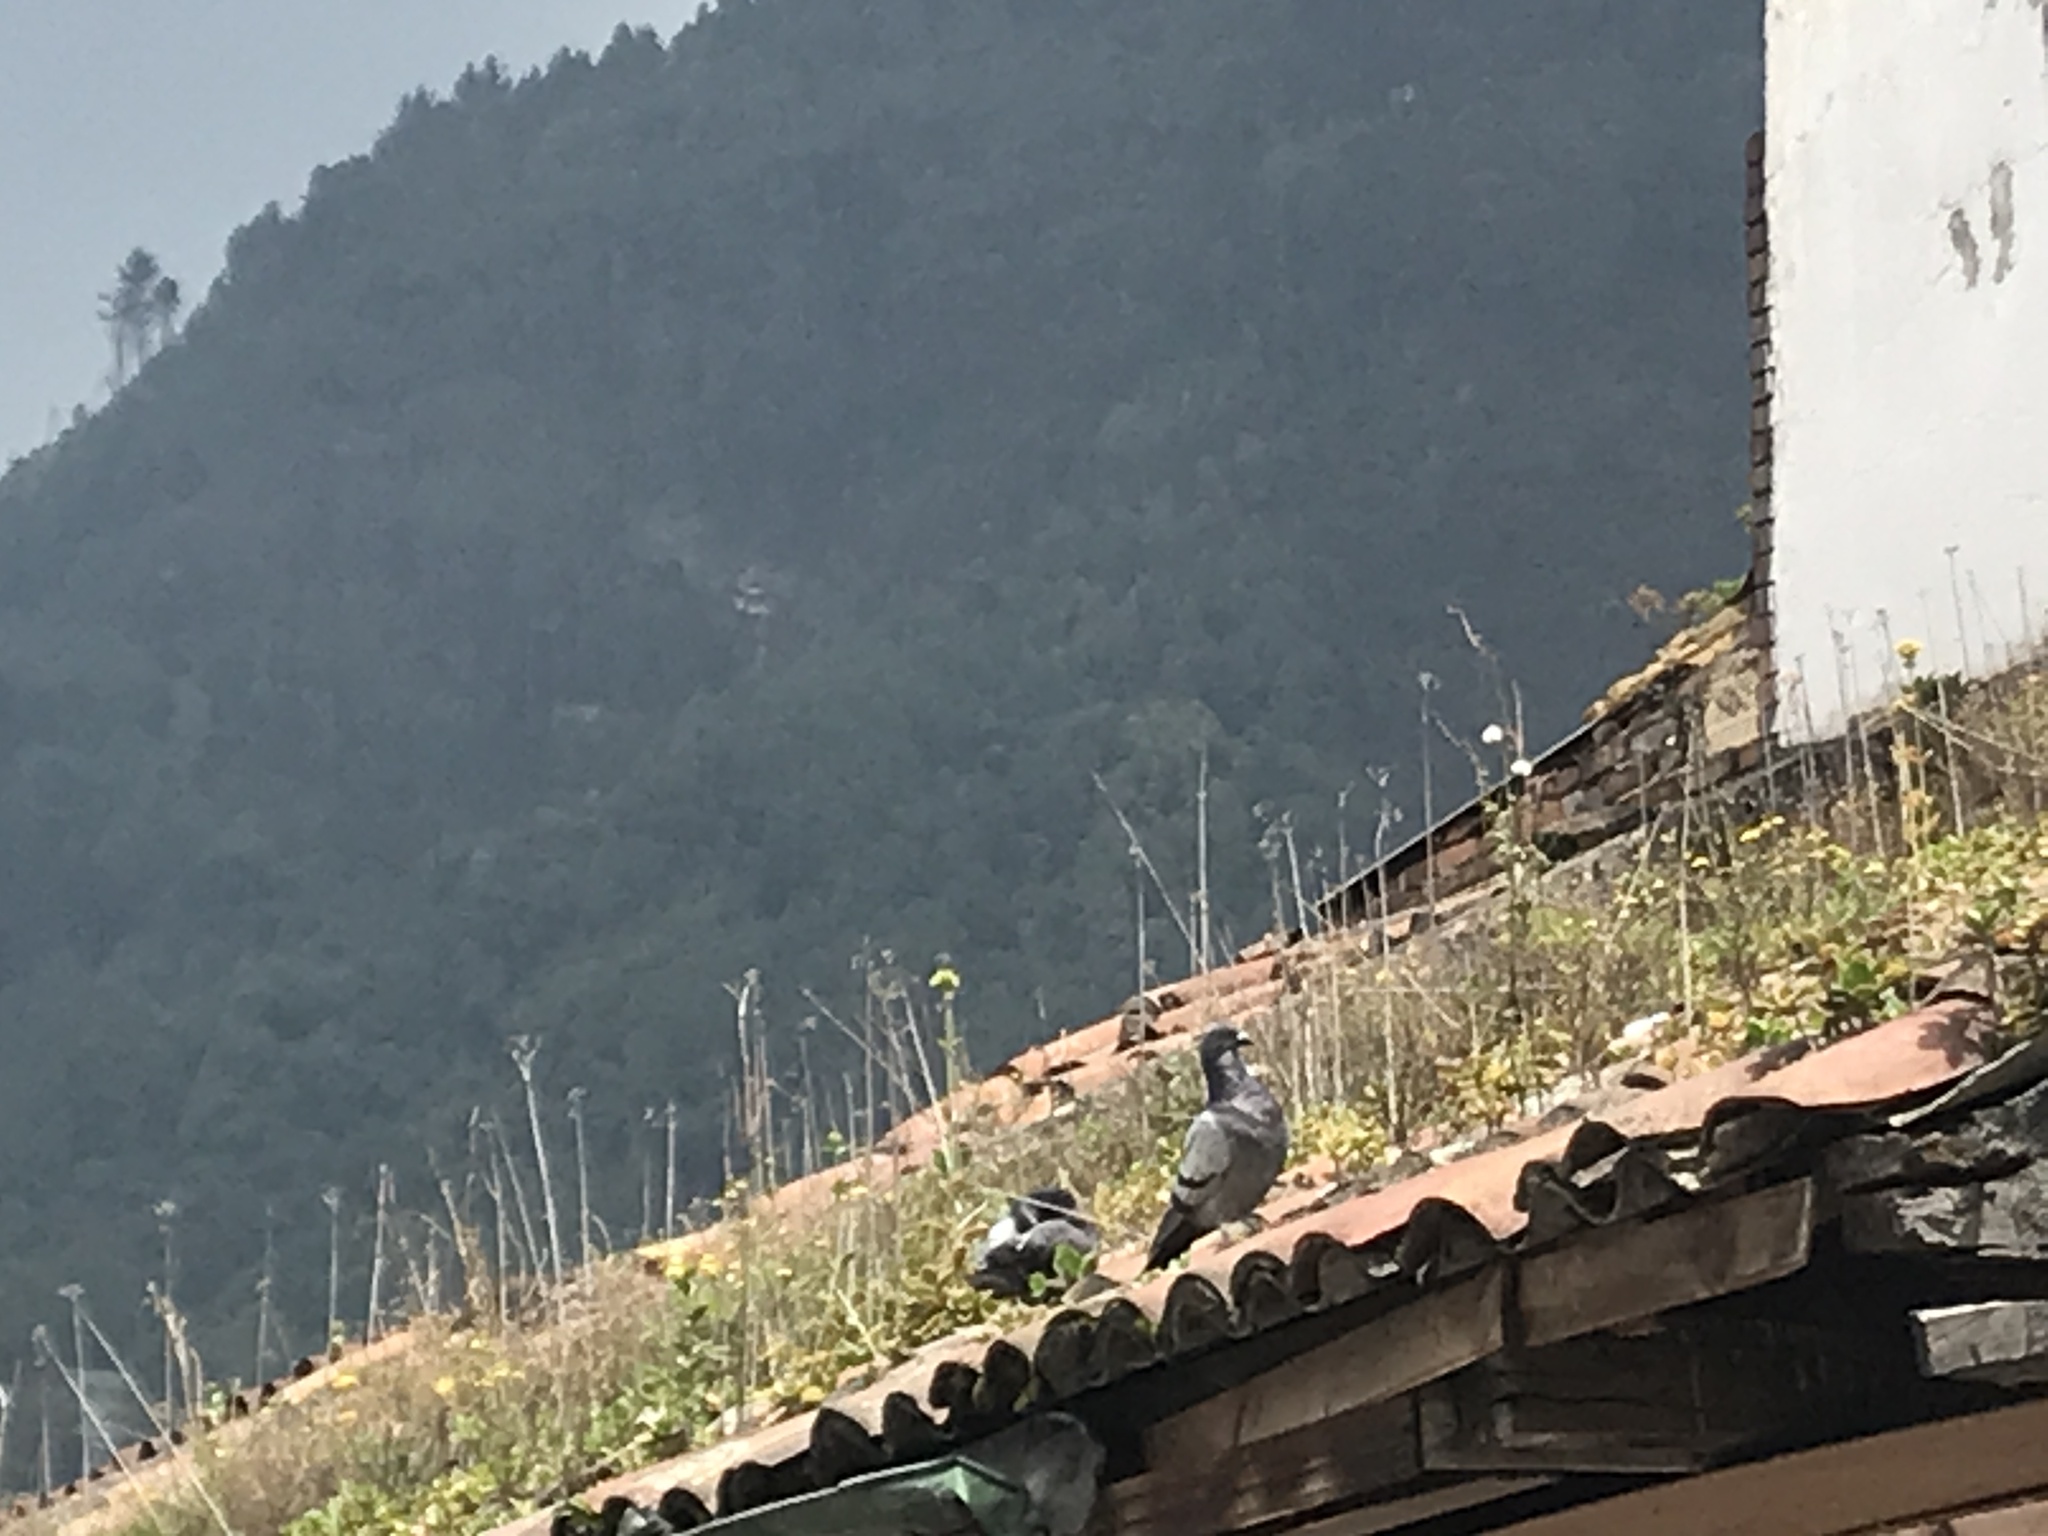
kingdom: Animalia
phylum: Chordata
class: Aves
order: Columbiformes
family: Columbidae
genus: Columba
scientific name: Columba livia
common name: Rock pigeon
